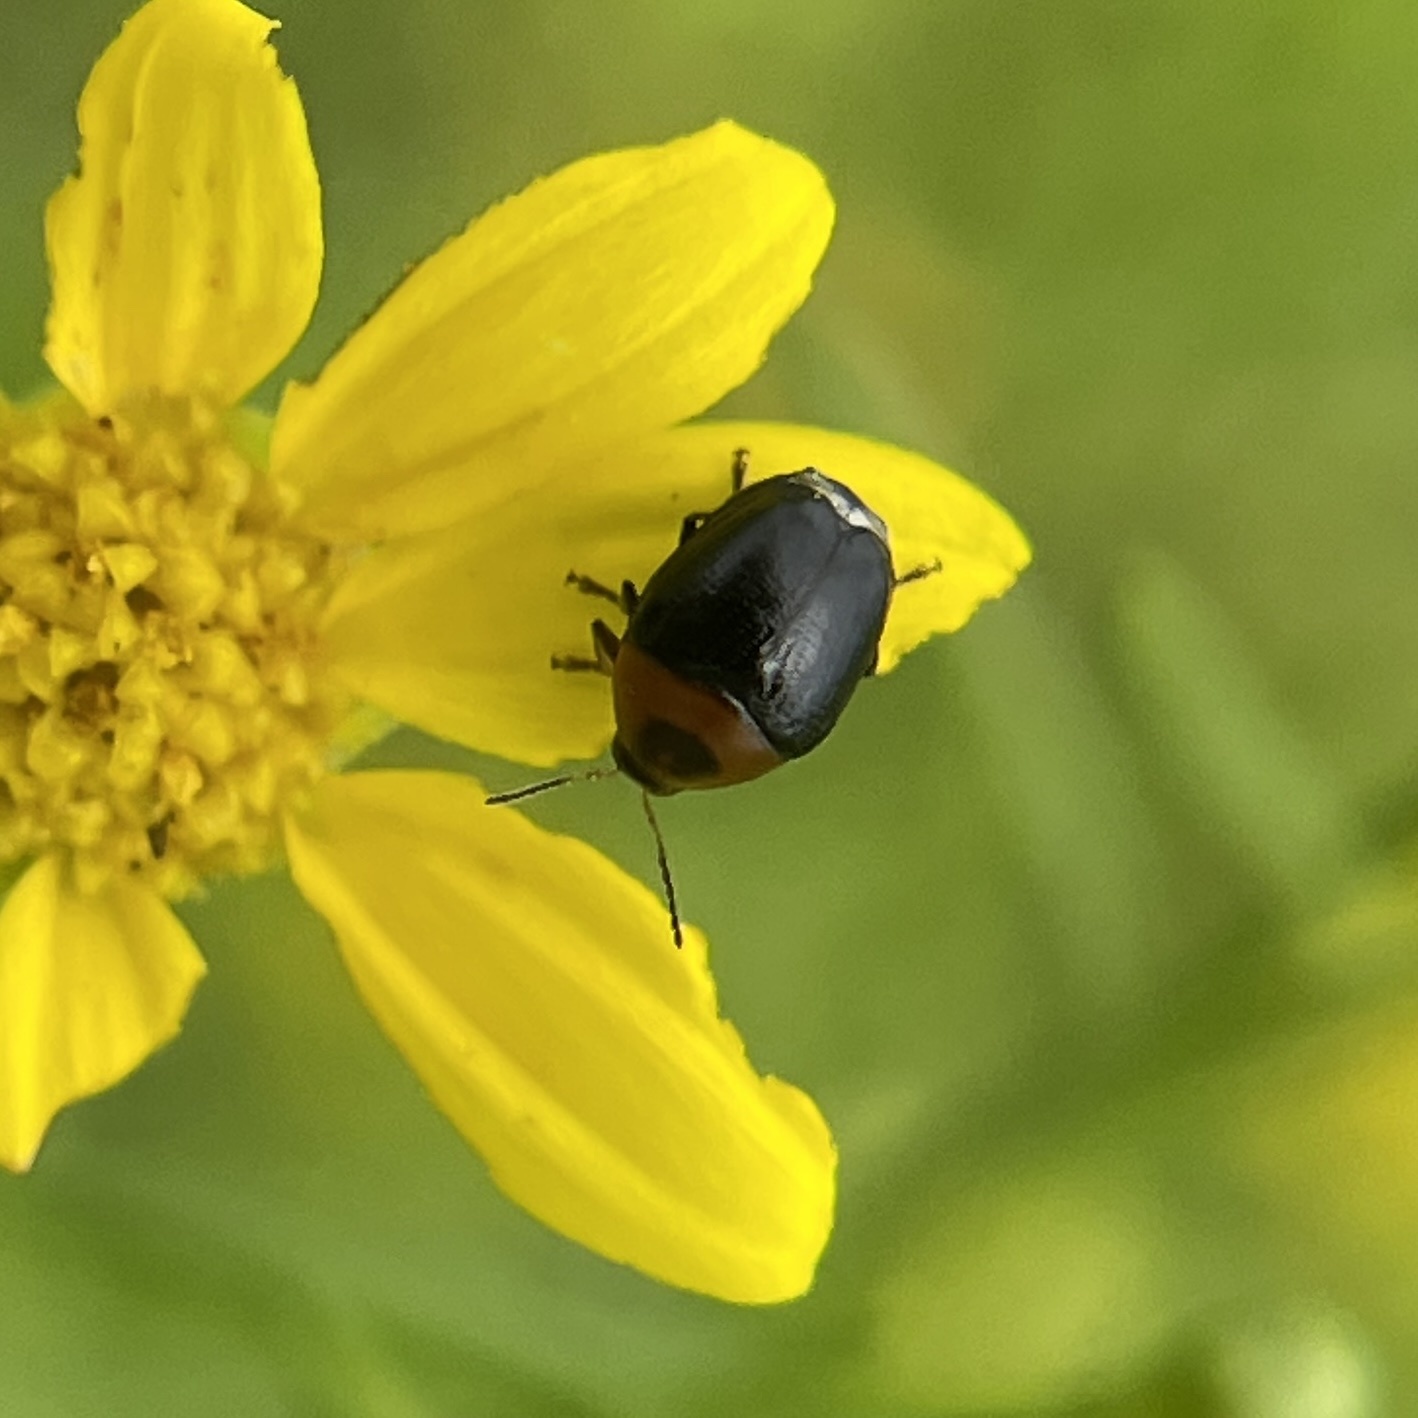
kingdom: Animalia
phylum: Arthropoda
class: Insecta
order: Coleoptera
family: Chrysomelidae
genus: Lexiphanes
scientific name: Lexiphanes teapensis
